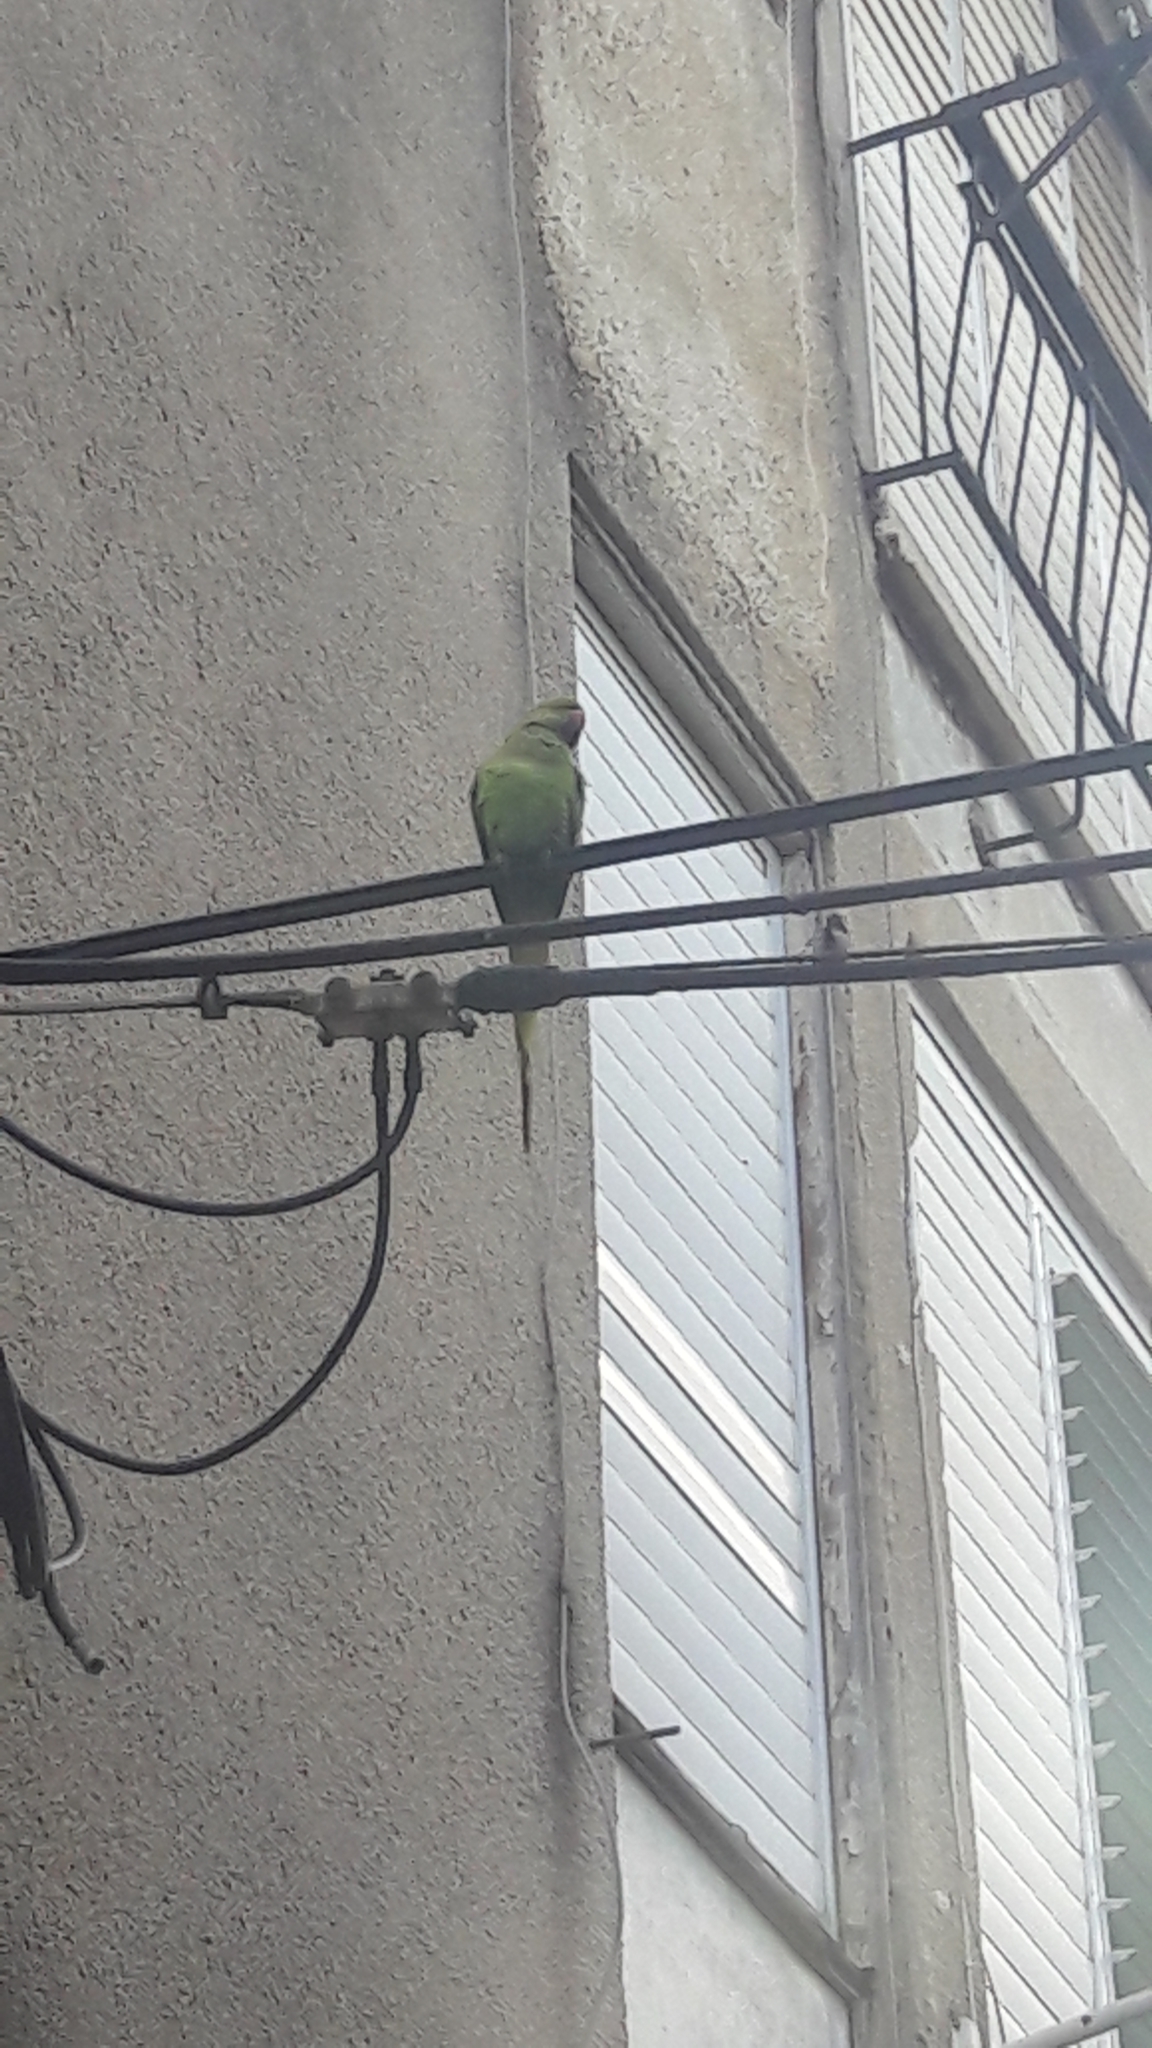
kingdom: Animalia
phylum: Chordata
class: Aves
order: Psittaciformes
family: Psittacidae
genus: Psittacula
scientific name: Psittacula krameri
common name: Rose-ringed parakeet
